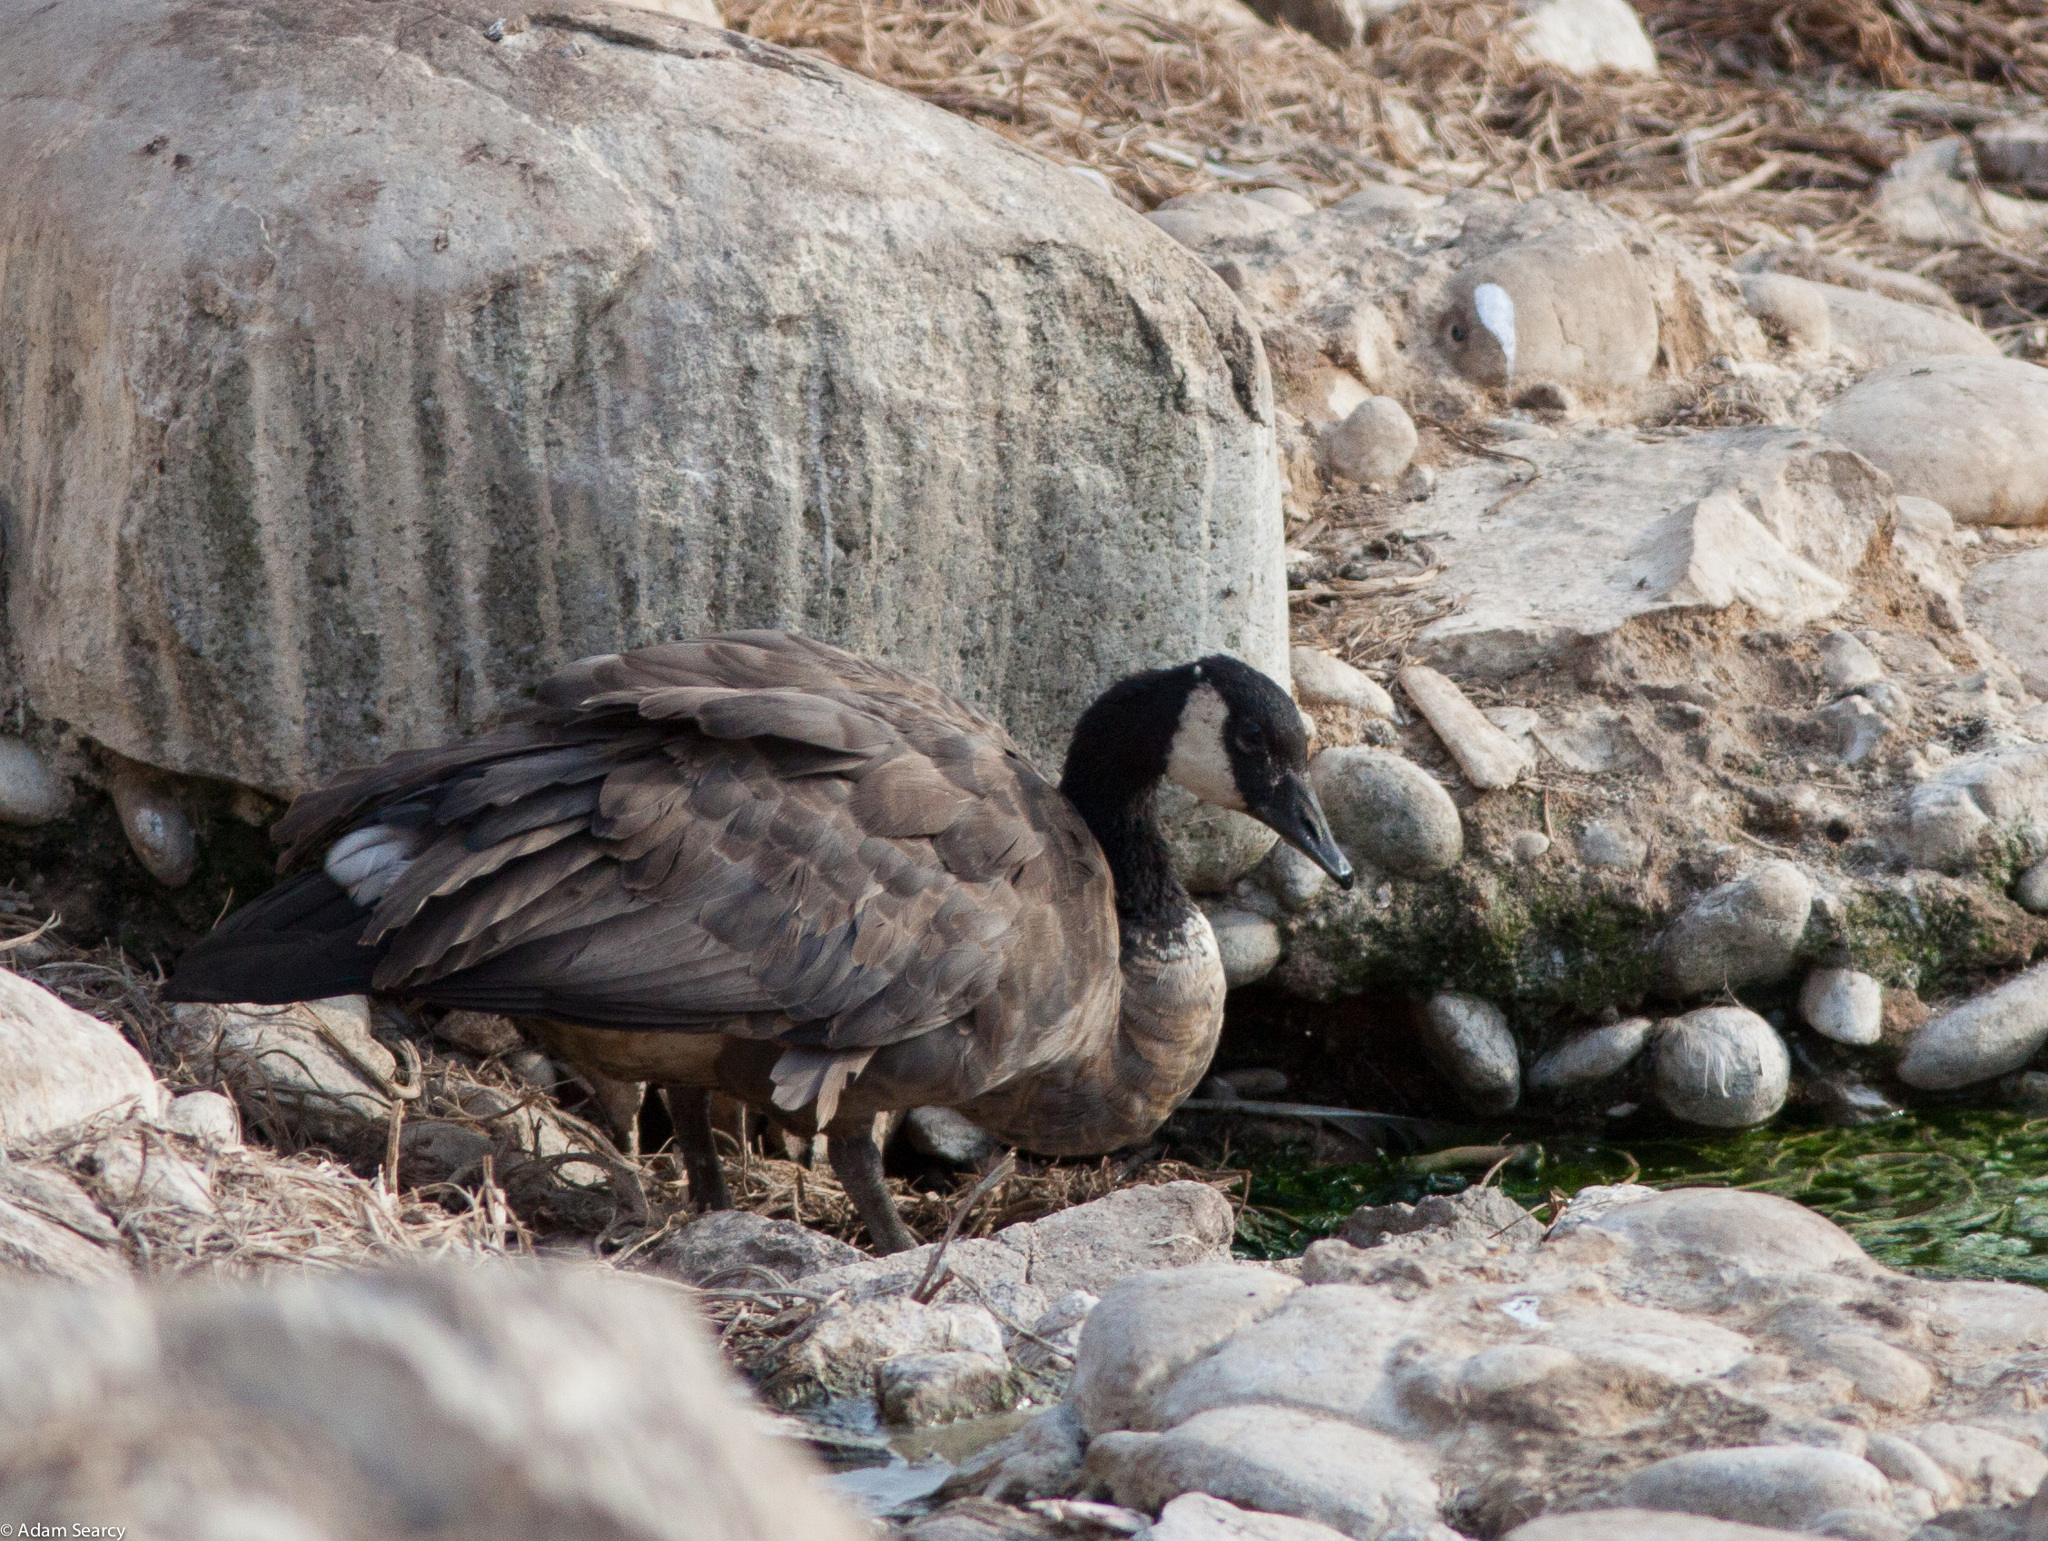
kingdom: Animalia
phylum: Chordata
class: Aves
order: Anseriformes
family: Anatidae
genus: Branta
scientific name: Branta canadensis
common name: Canada goose
